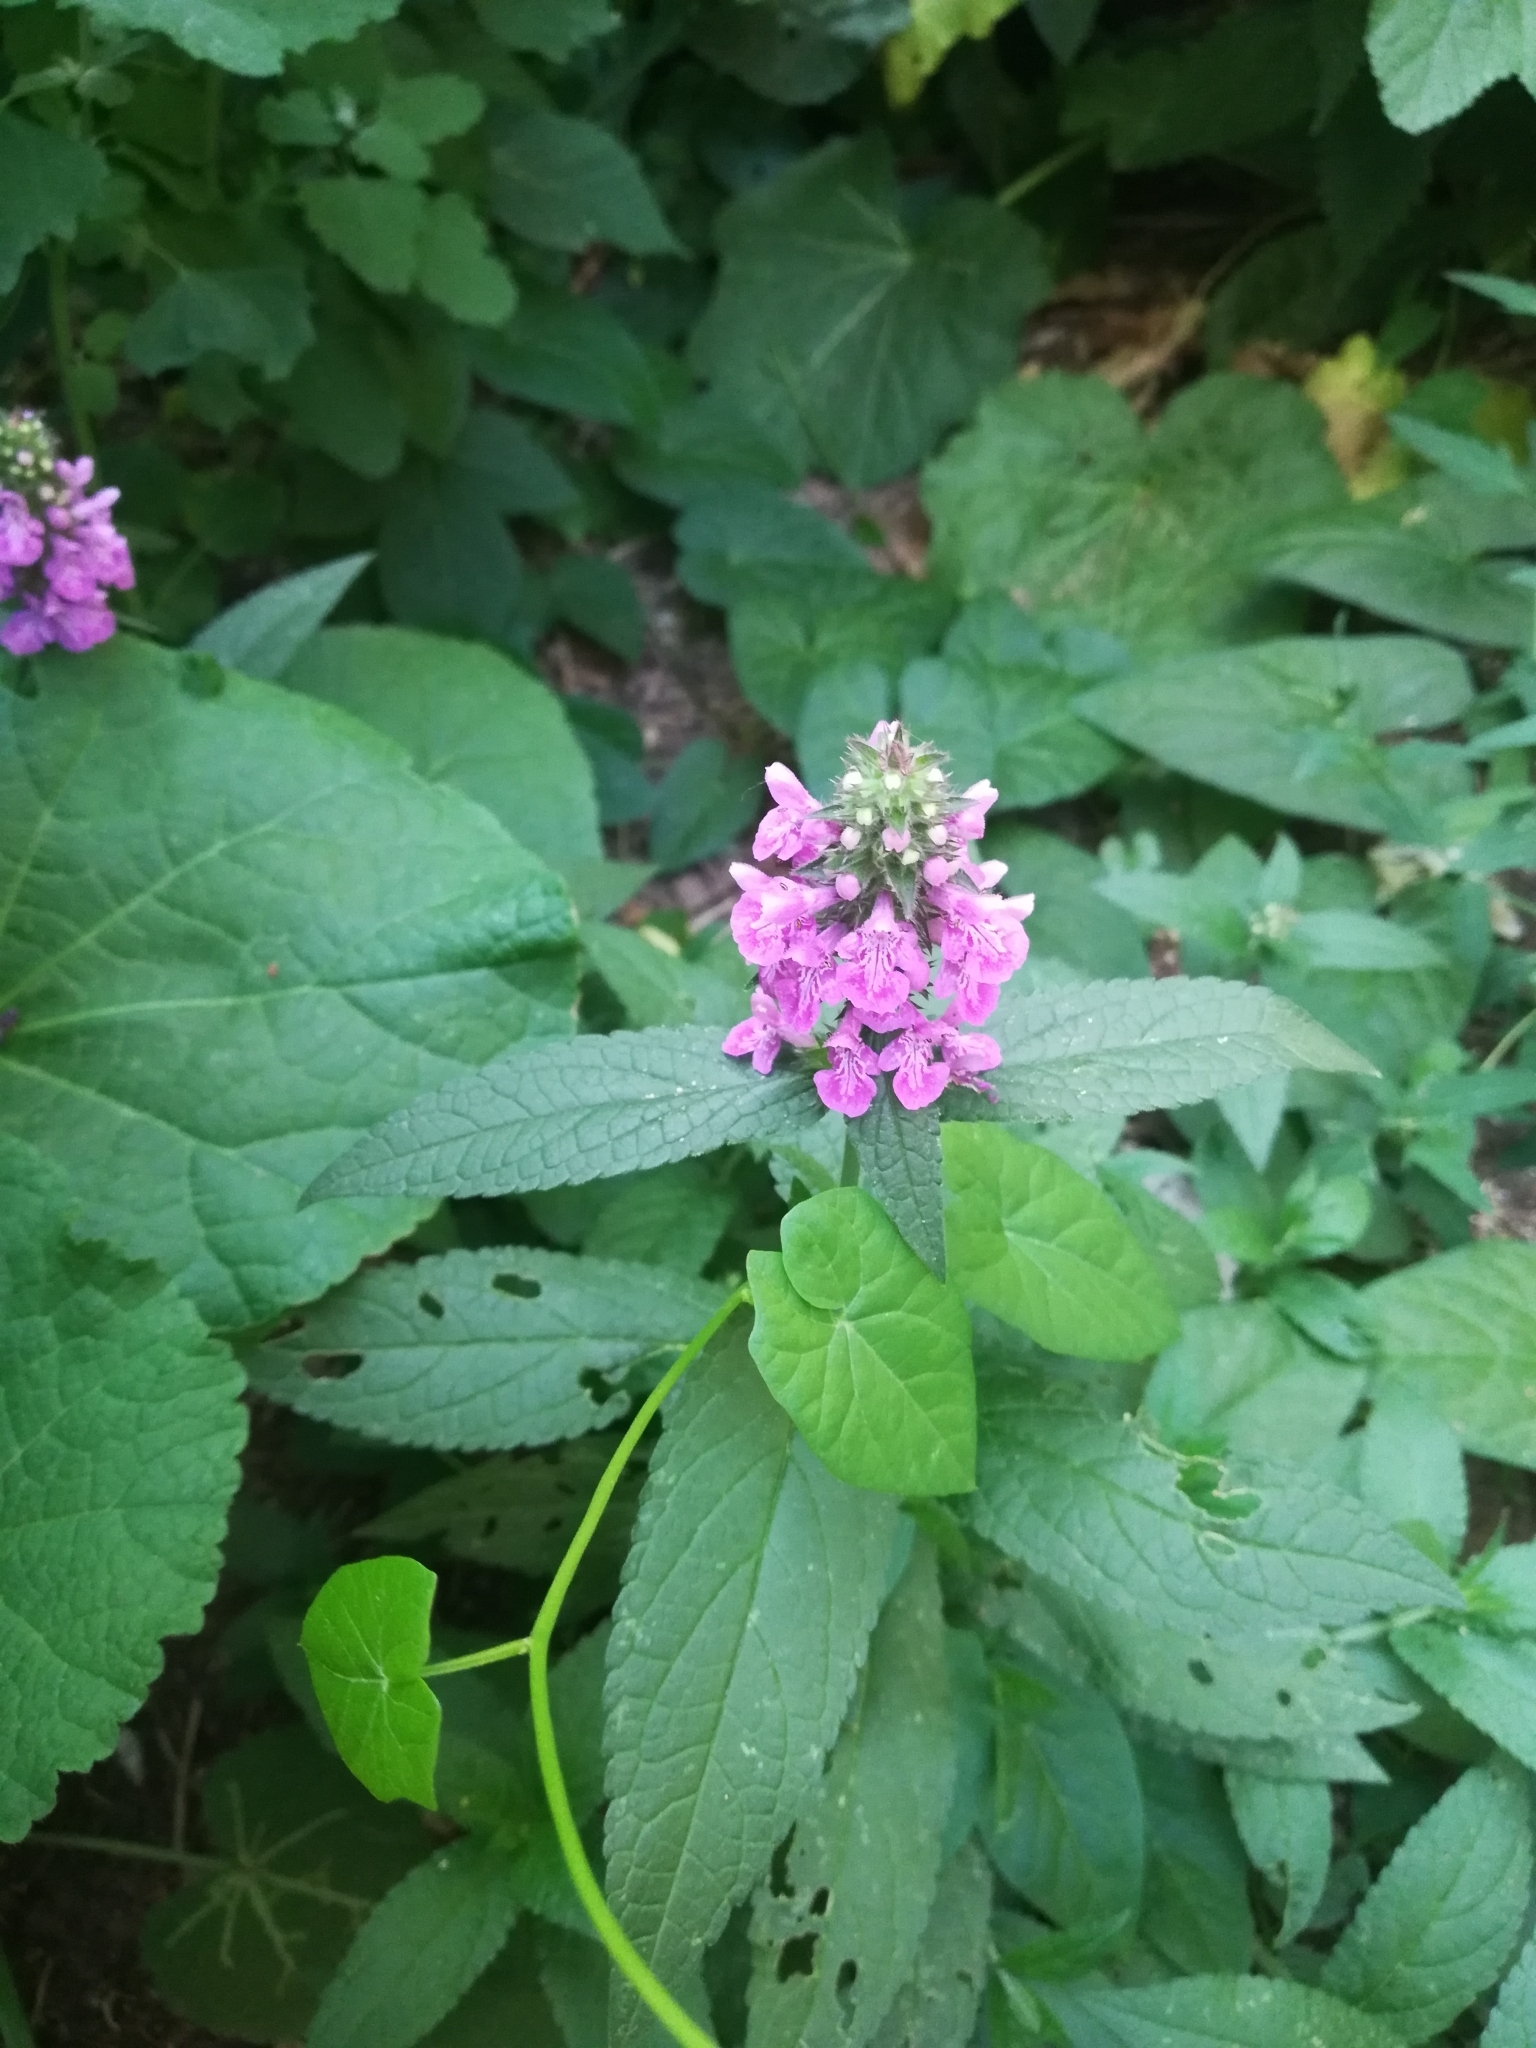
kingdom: Plantae
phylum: Tracheophyta
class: Magnoliopsida
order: Lamiales
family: Lamiaceae
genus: Stachys
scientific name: Stachys palustris
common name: Marsh woundwort
